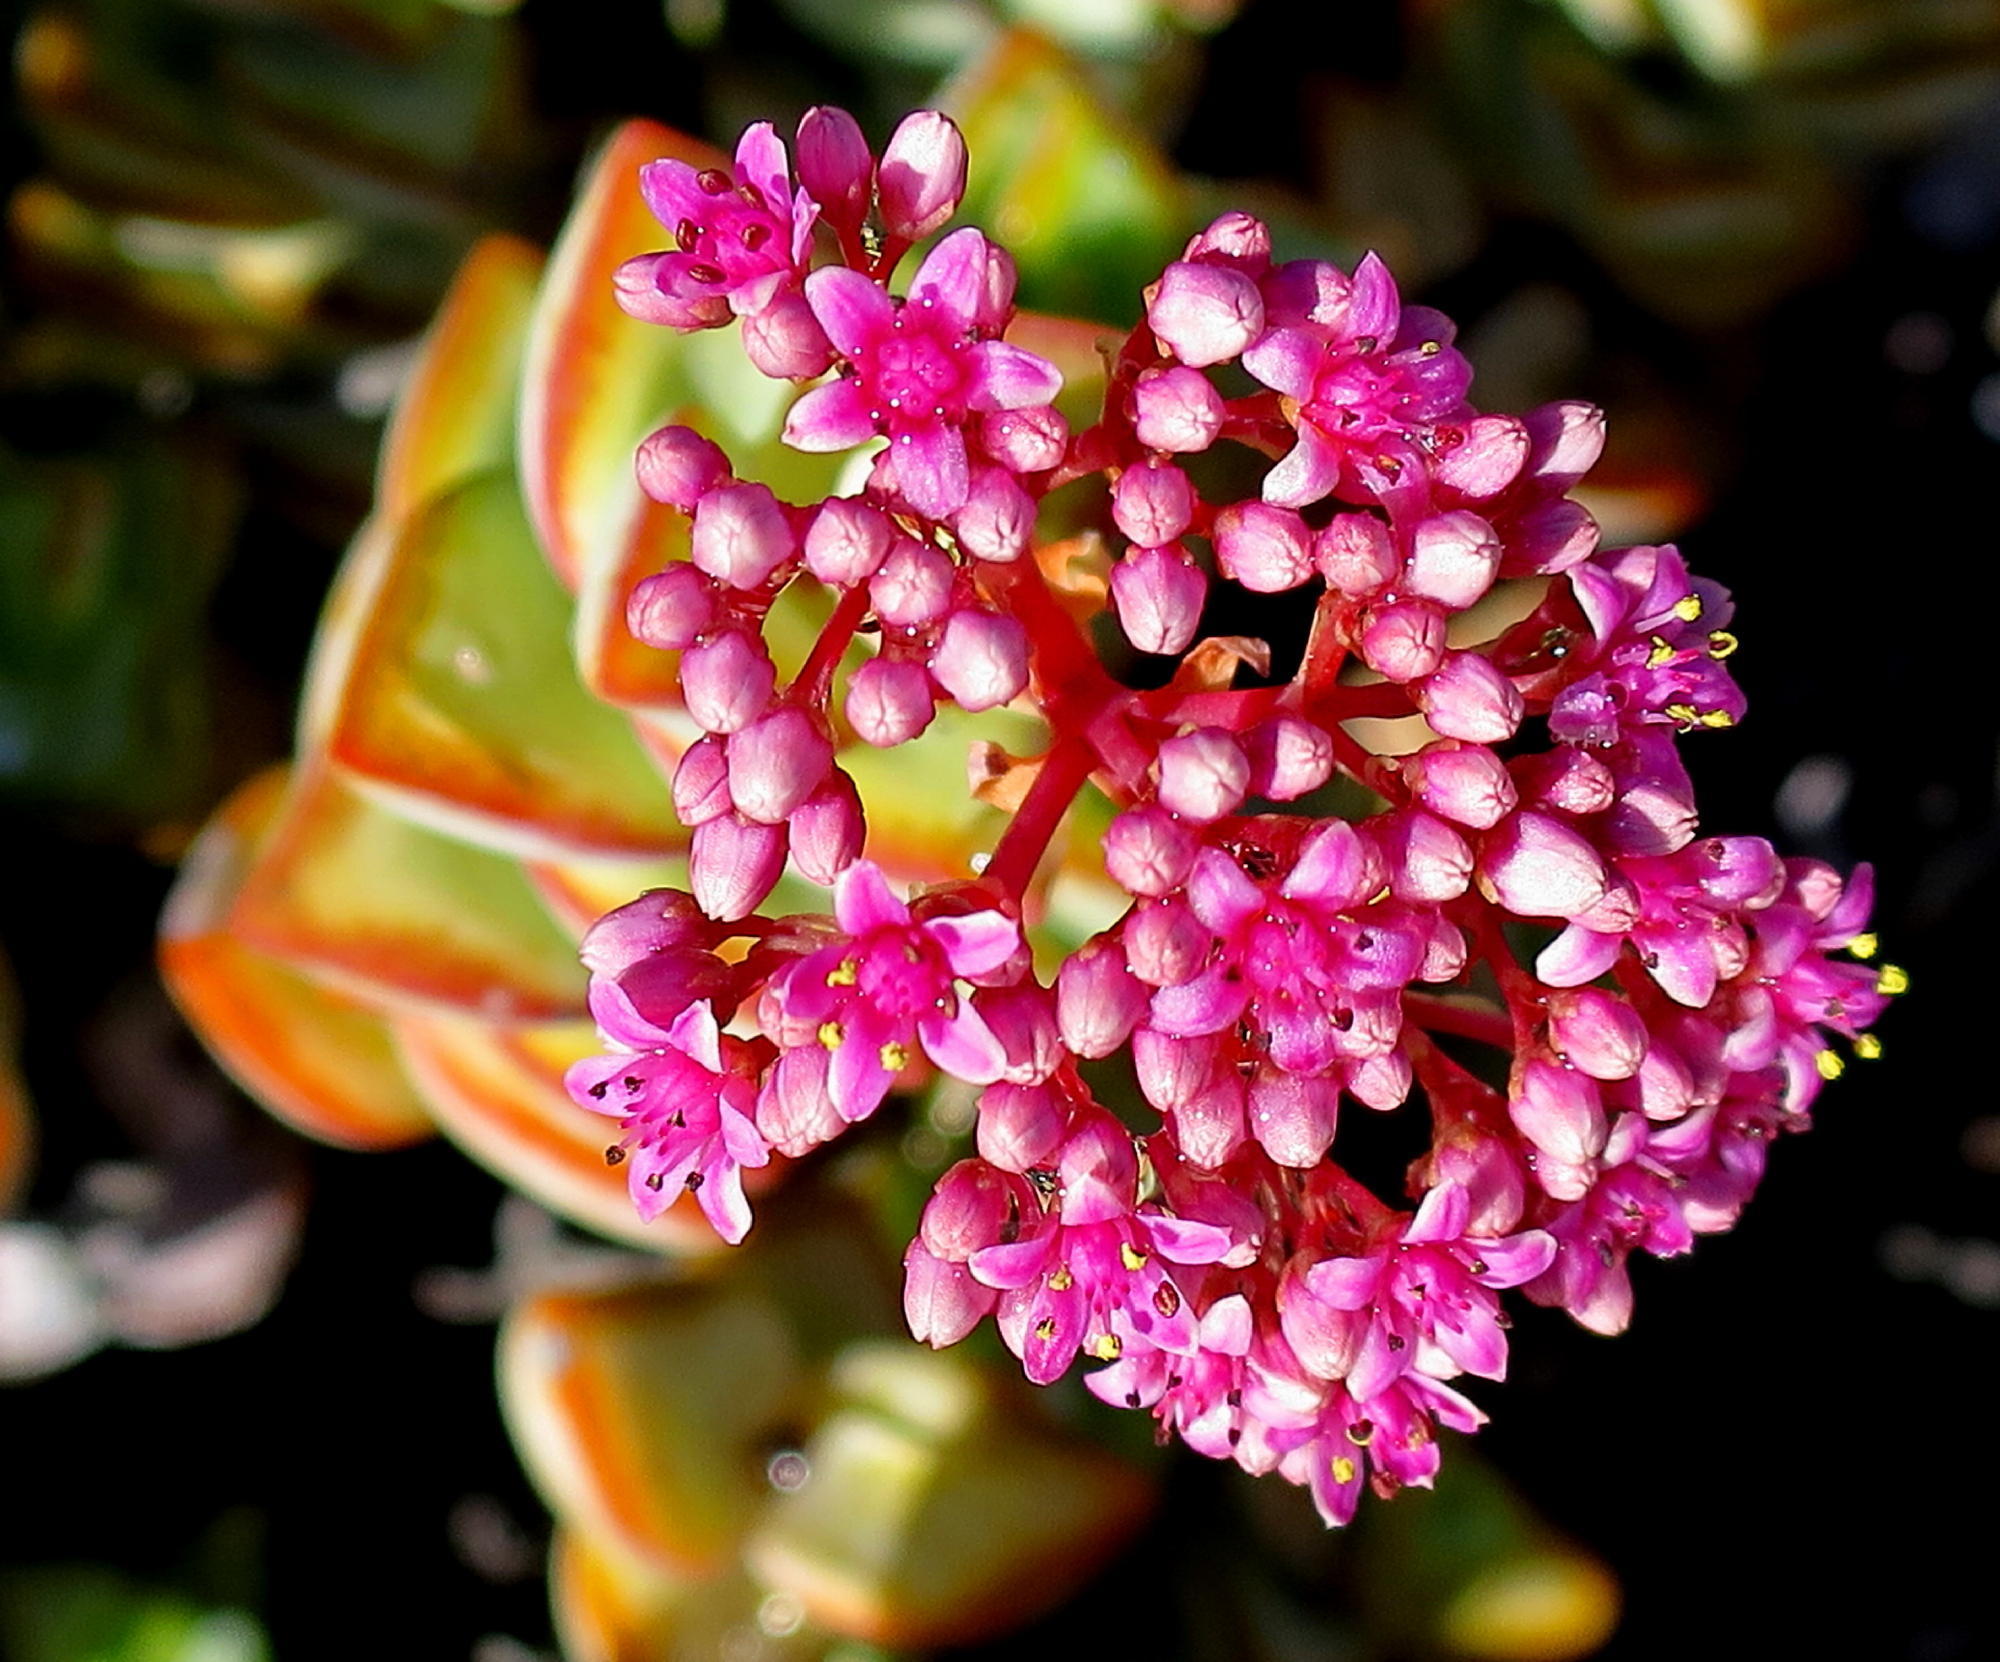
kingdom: Plantae
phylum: Tracheophyta
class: Magnoliopsida
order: Saxifragales
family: Crassulaceae
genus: Crassula
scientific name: Crassula rupestris
